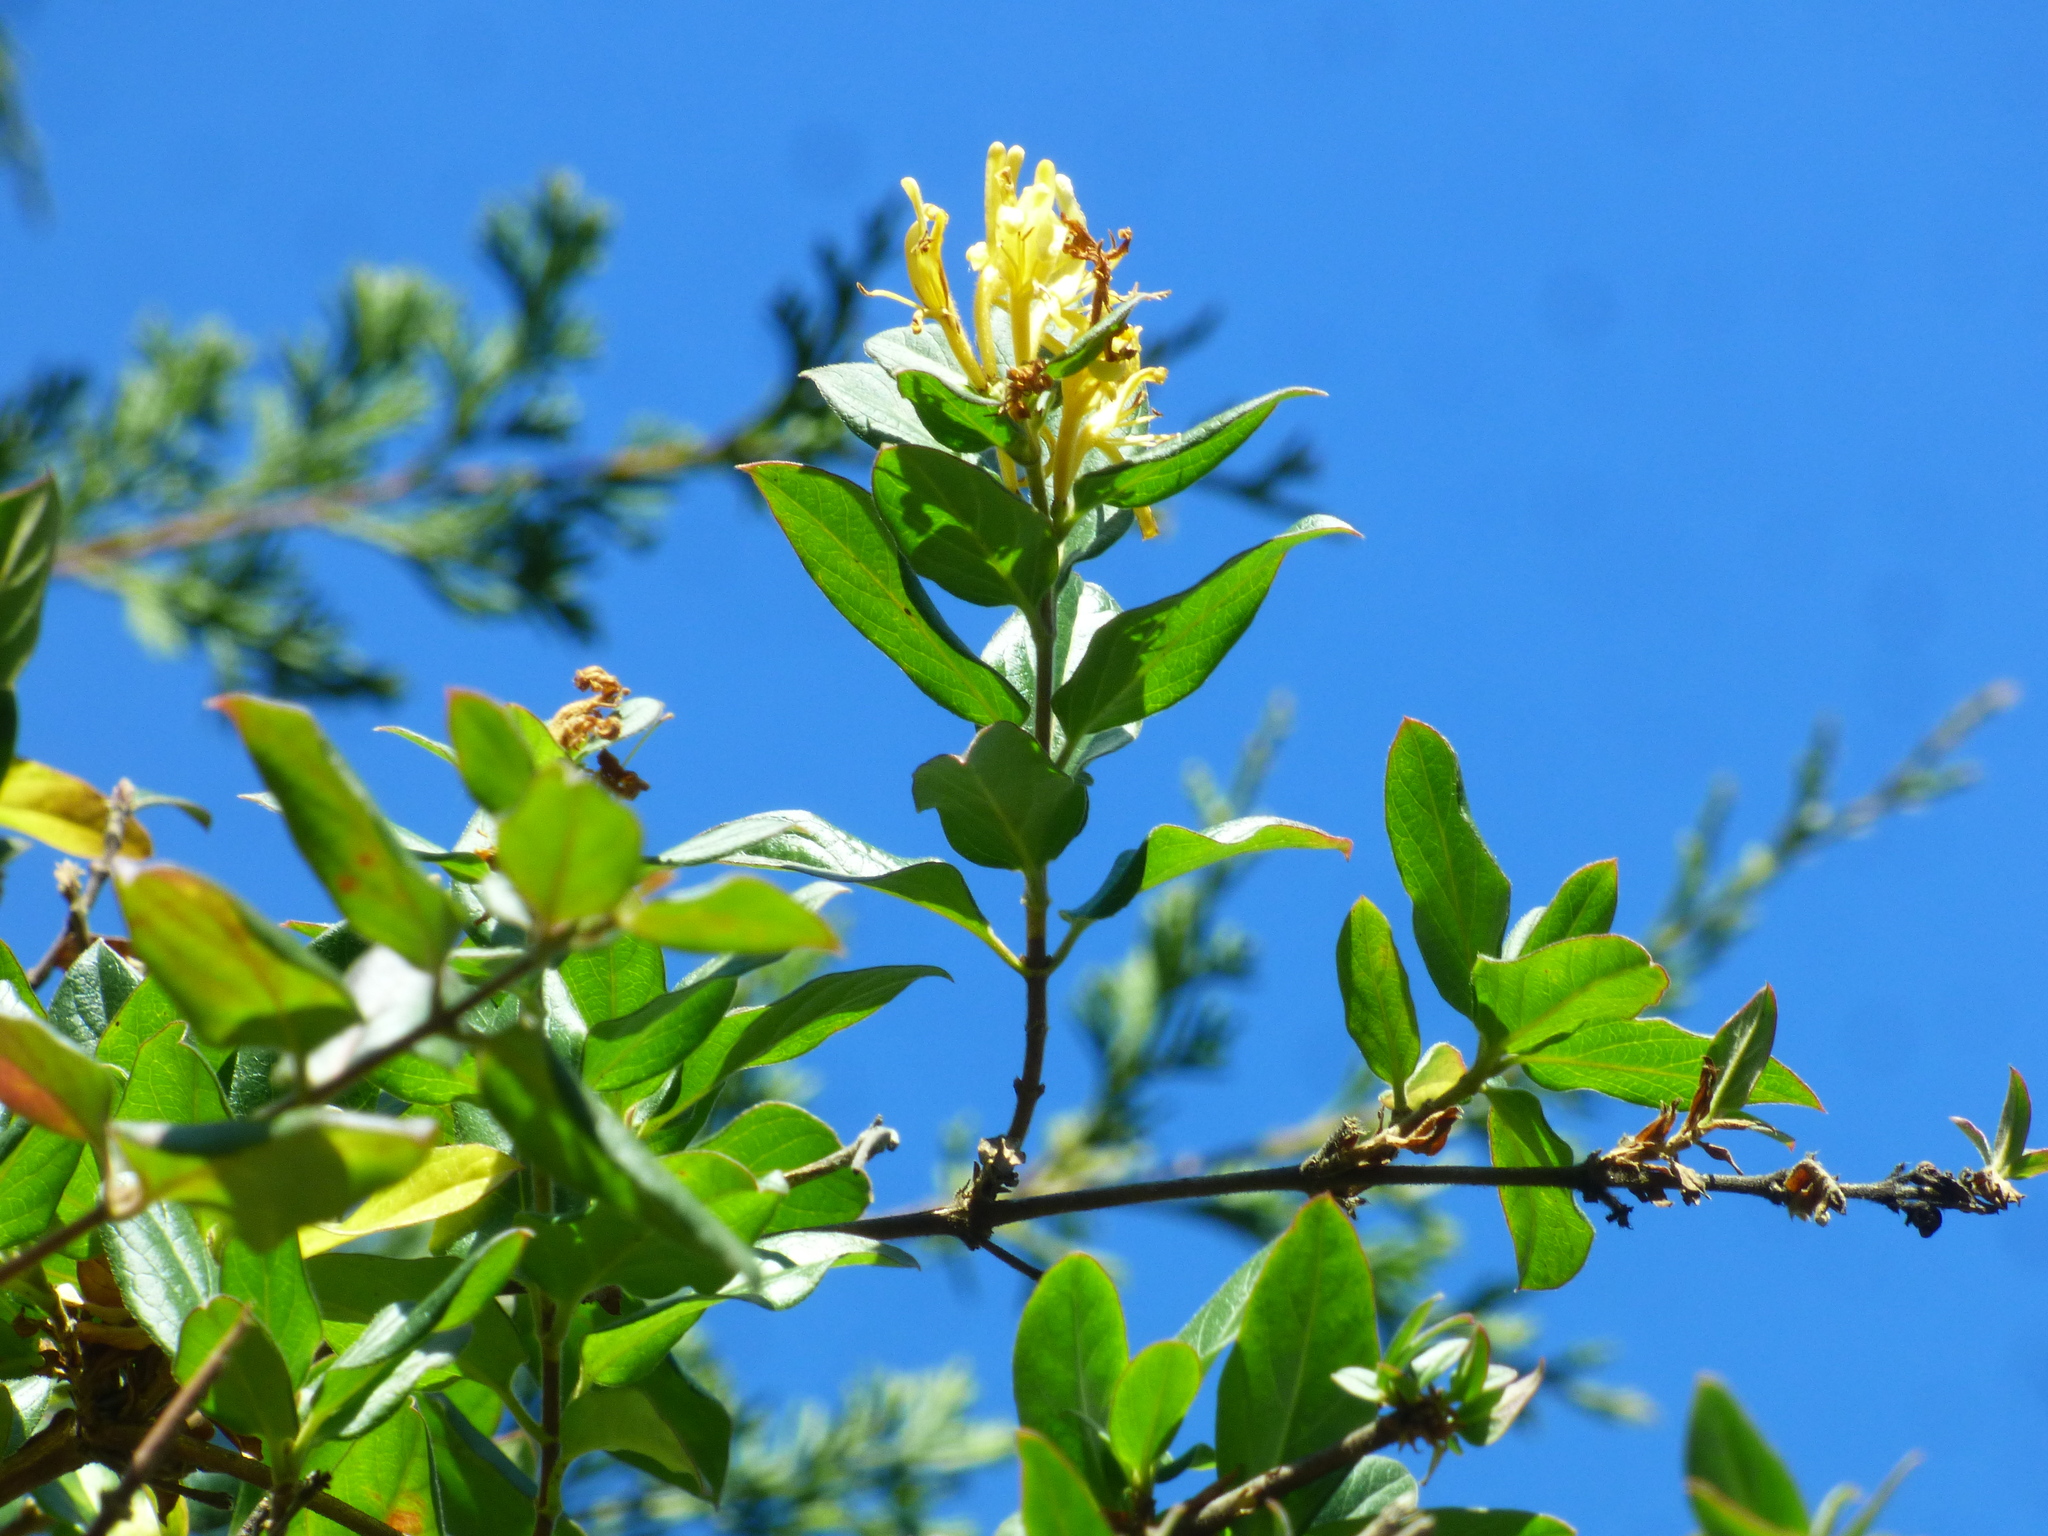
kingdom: Plantae
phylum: Tracheophyta
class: Magnoliopsida
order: Dipsacales
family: Caprifoliaceae
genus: Lonicera
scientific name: Lonicera japonica
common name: Japanese honeysuckle
